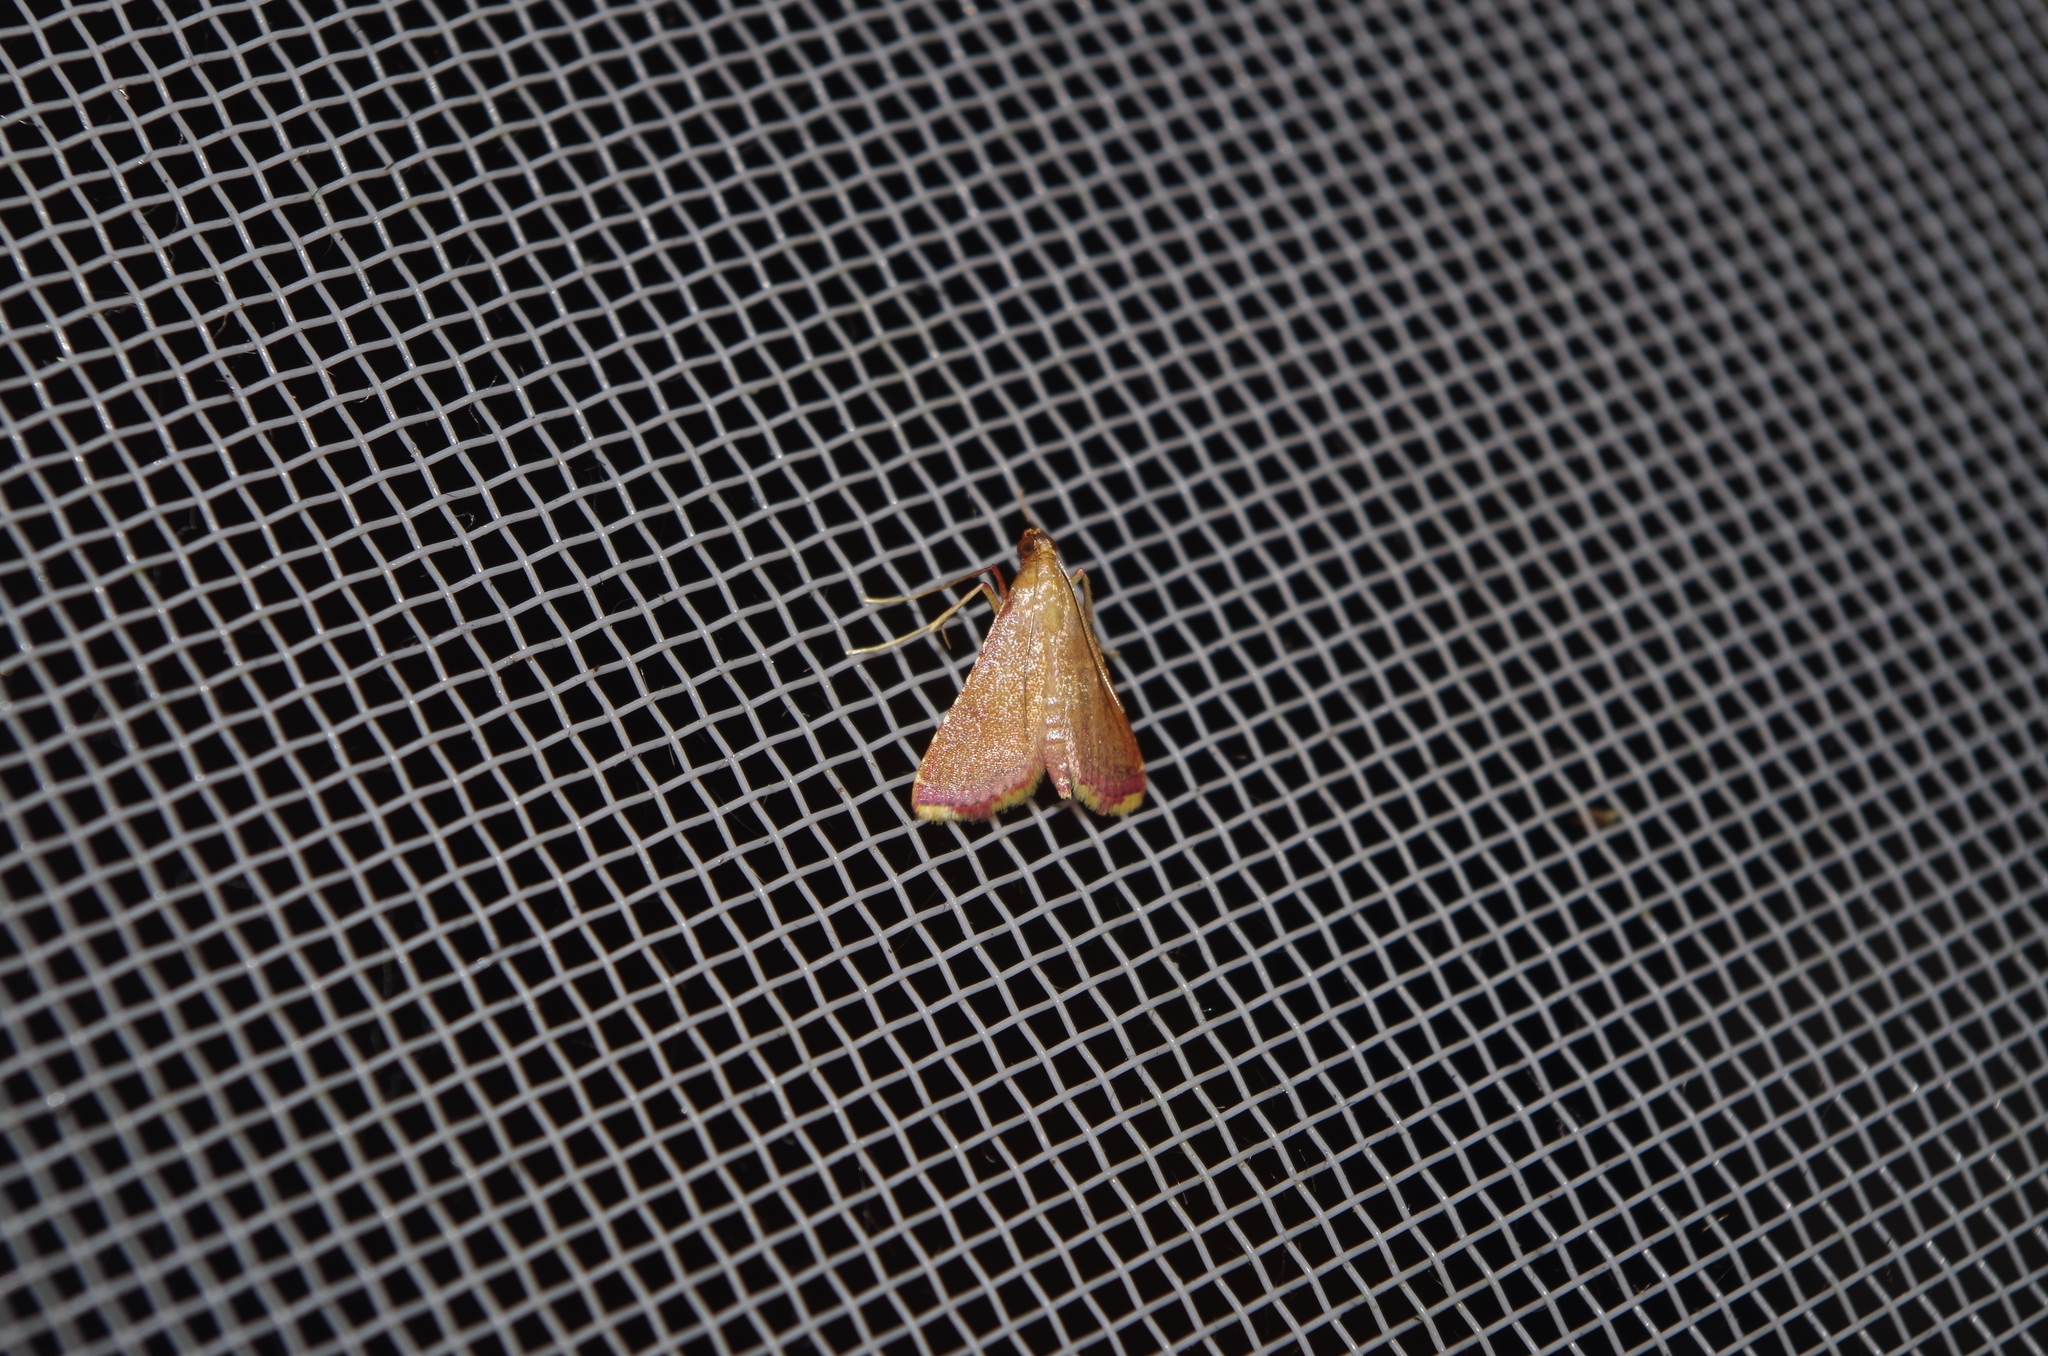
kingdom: Animalia
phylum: Arthropoda
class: Insecta
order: Lepidoptera
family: Pyralidae
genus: Endotricha
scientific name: Endotricha minialis
